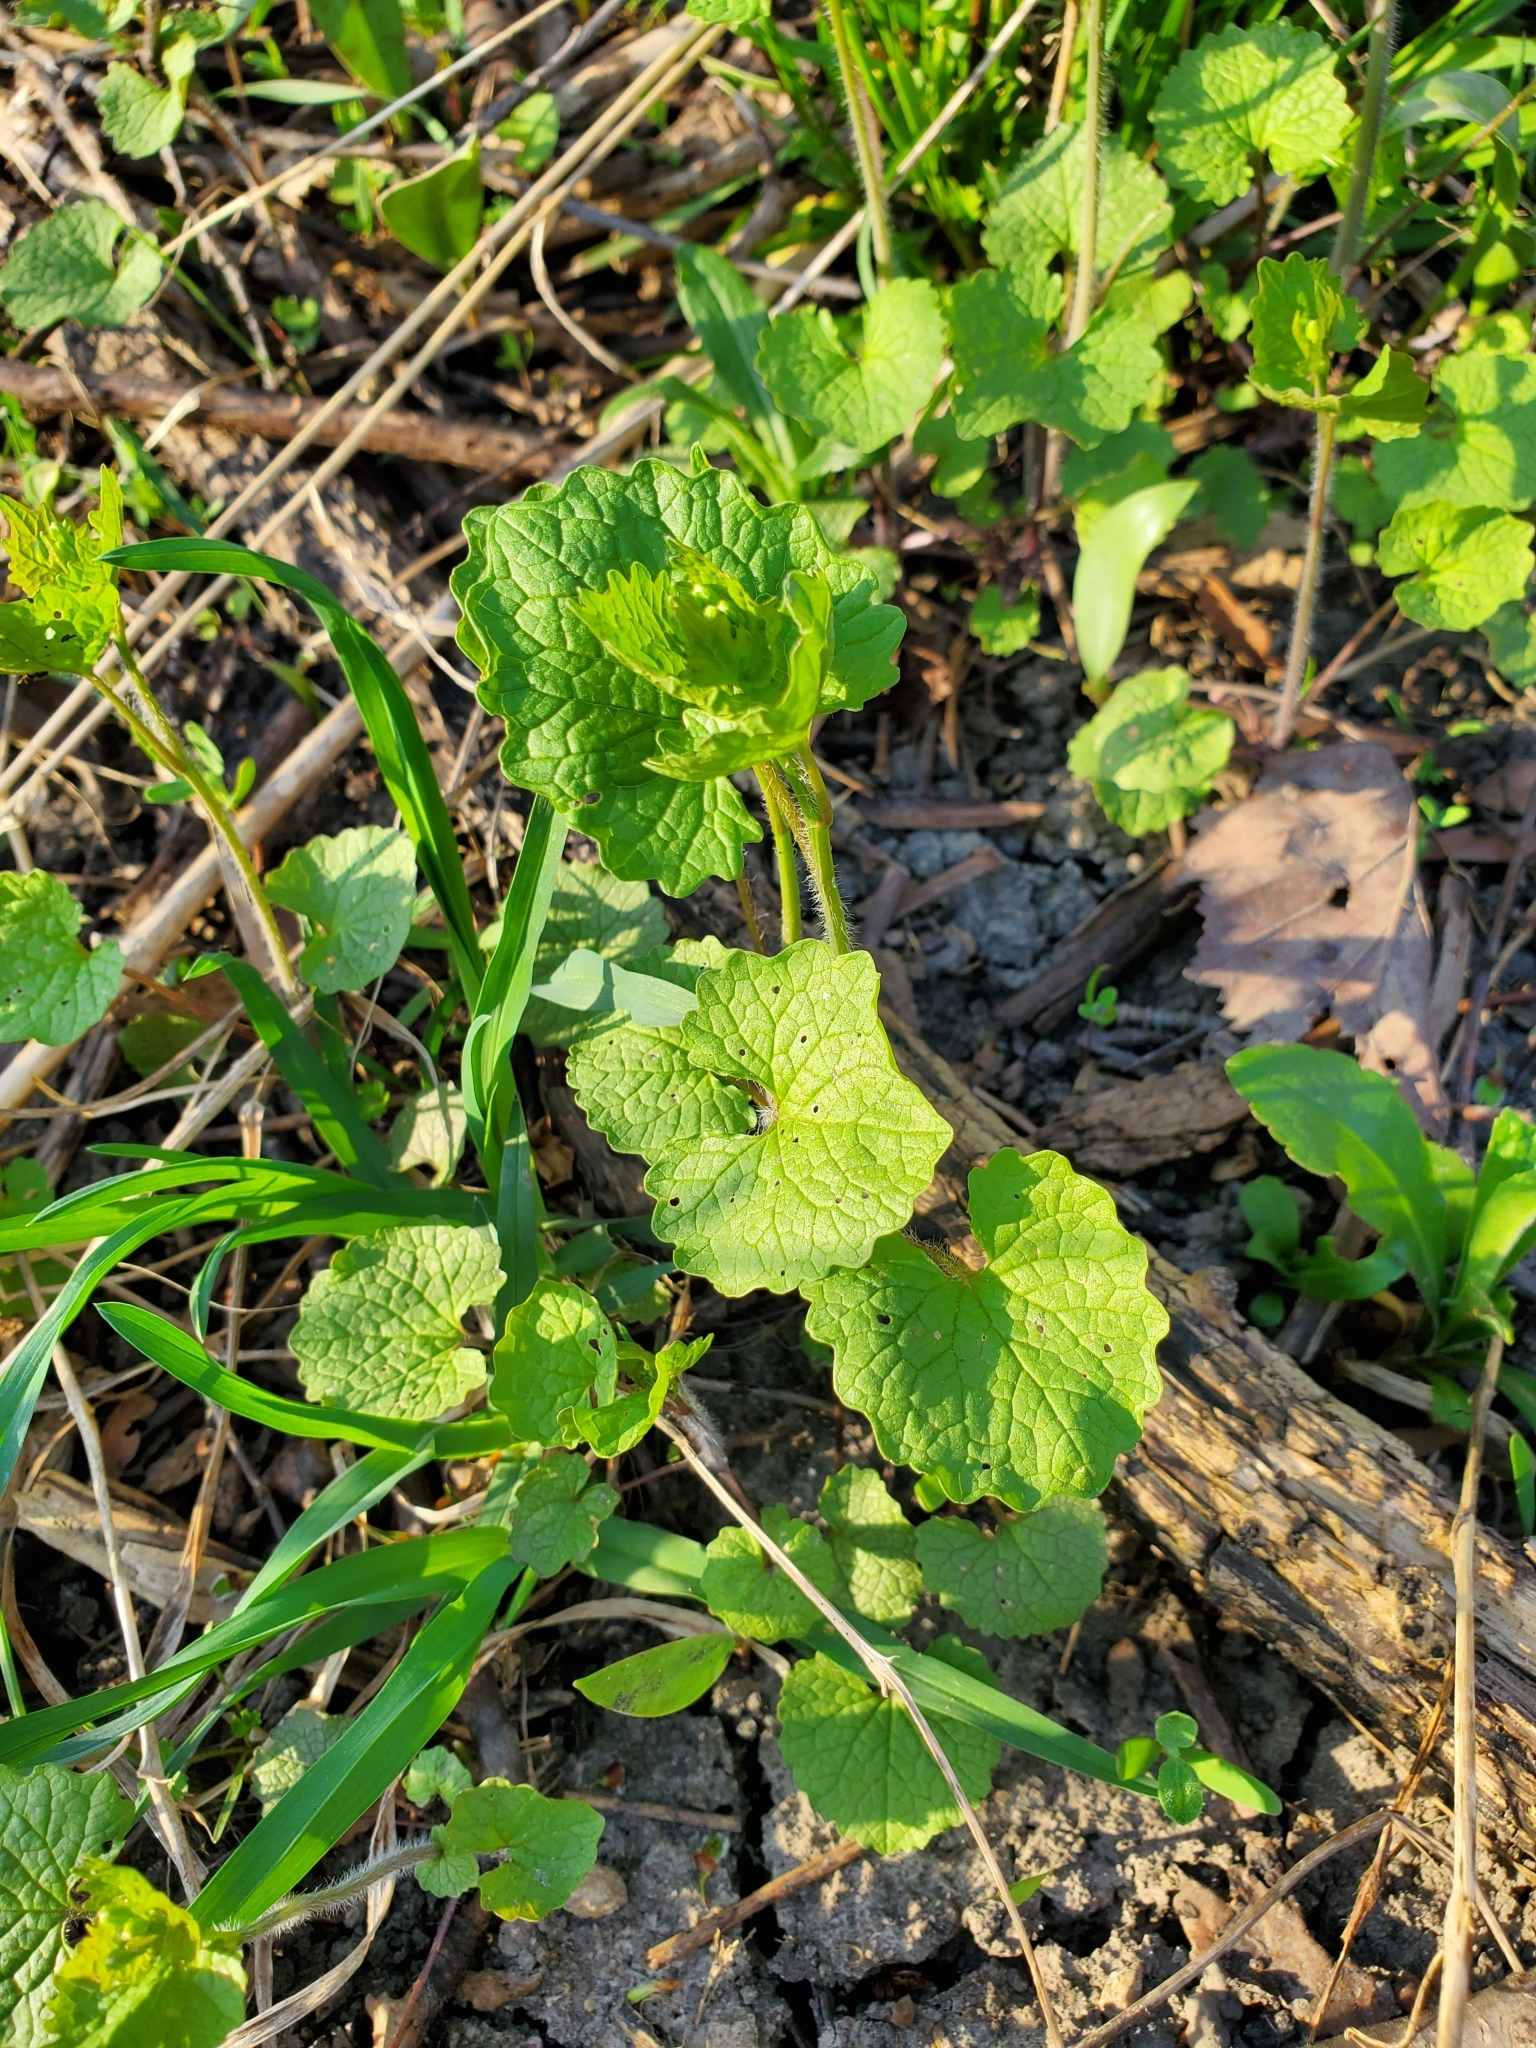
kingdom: Plantae
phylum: Tracheophyta
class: Magnoliopsida
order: Brassicales
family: Brassicaceae
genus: Alliaria
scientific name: Alliaria petiolata
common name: Garlic mustard
